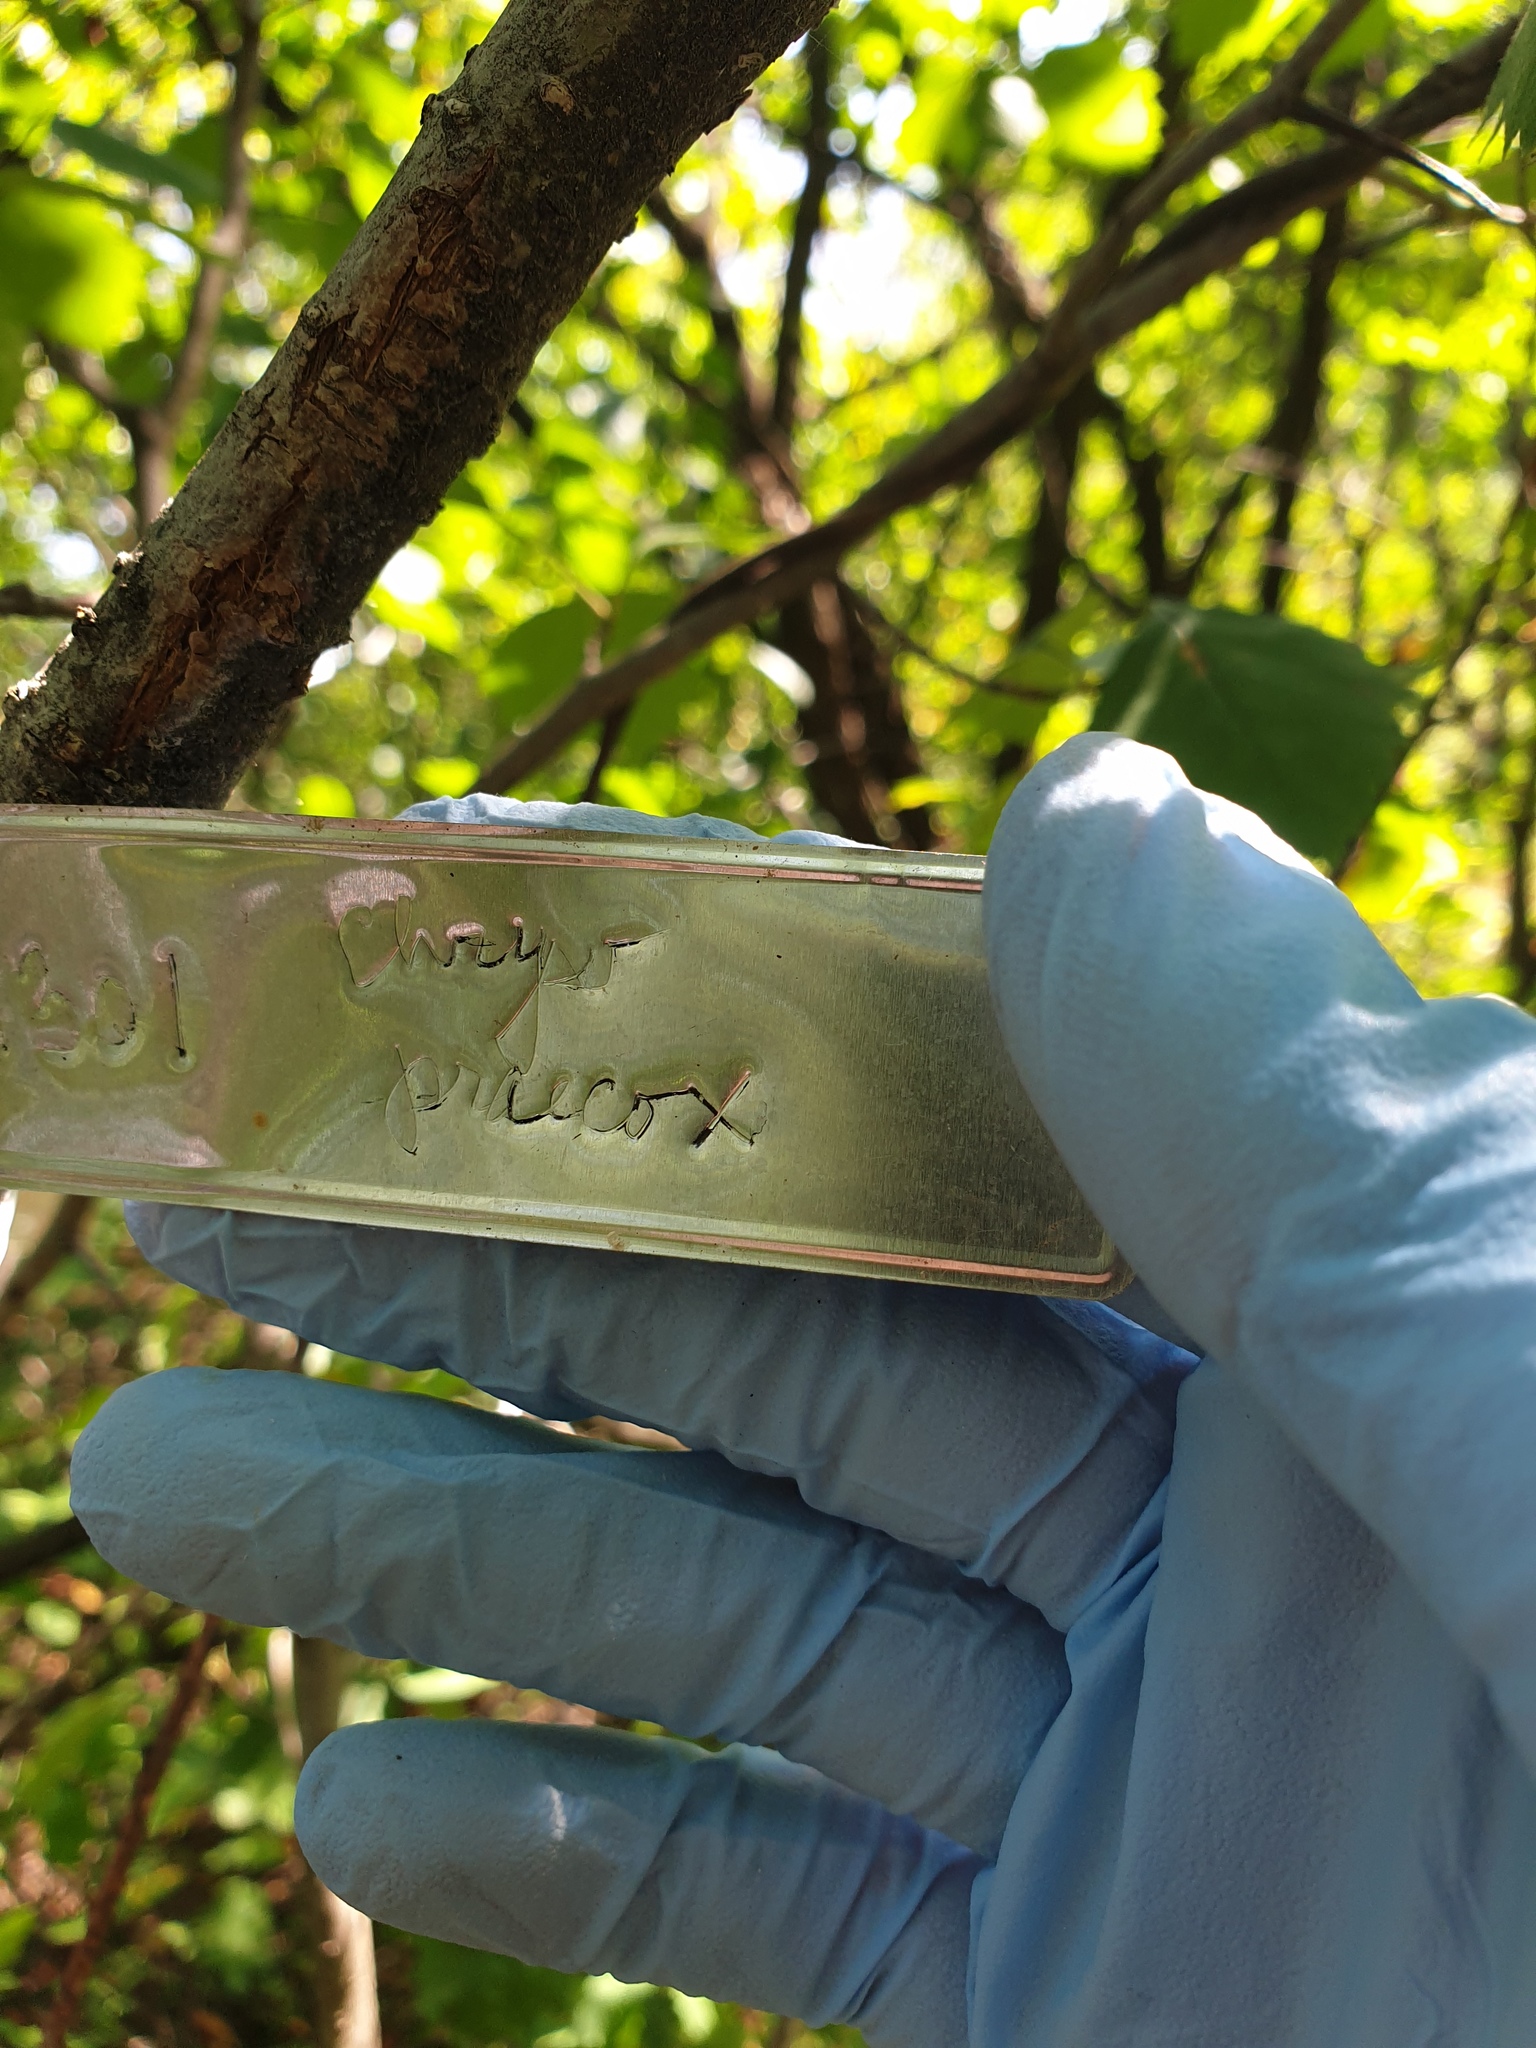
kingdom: Plantae
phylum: Tracheophyta
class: Magnoliopsida
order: Rosales
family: Rosaceae
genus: Crataegus
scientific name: Crataegus flabellata
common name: Bosc's hawthorn
